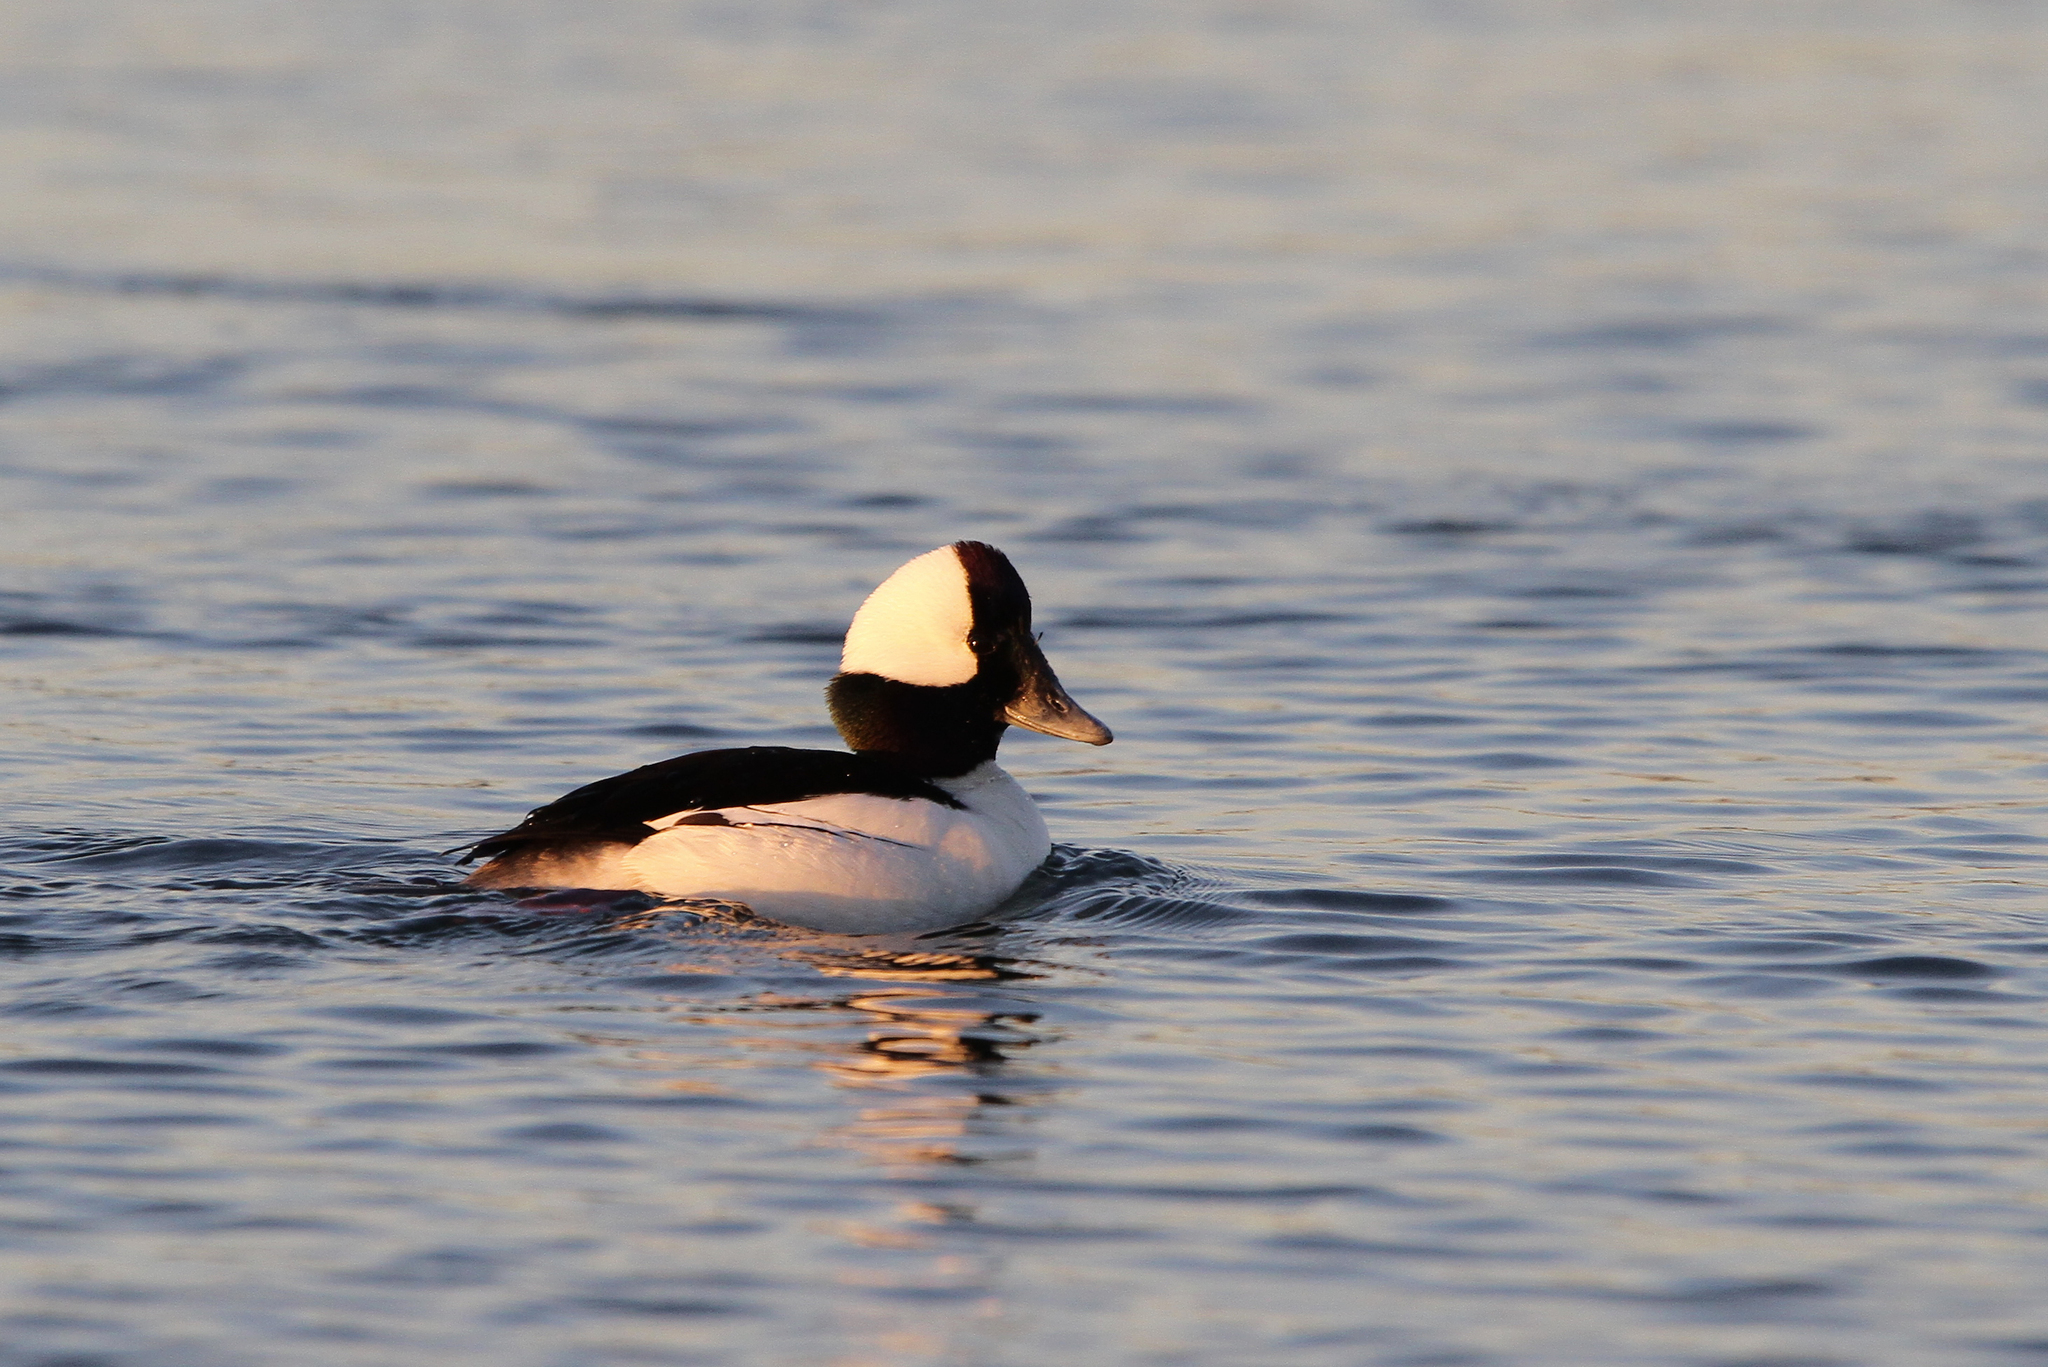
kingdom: Animalia
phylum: Chordata
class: Aves
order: Anseriformes
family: Anatidae
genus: Bucephala
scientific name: Bucephala albeola
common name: Bufflehead
